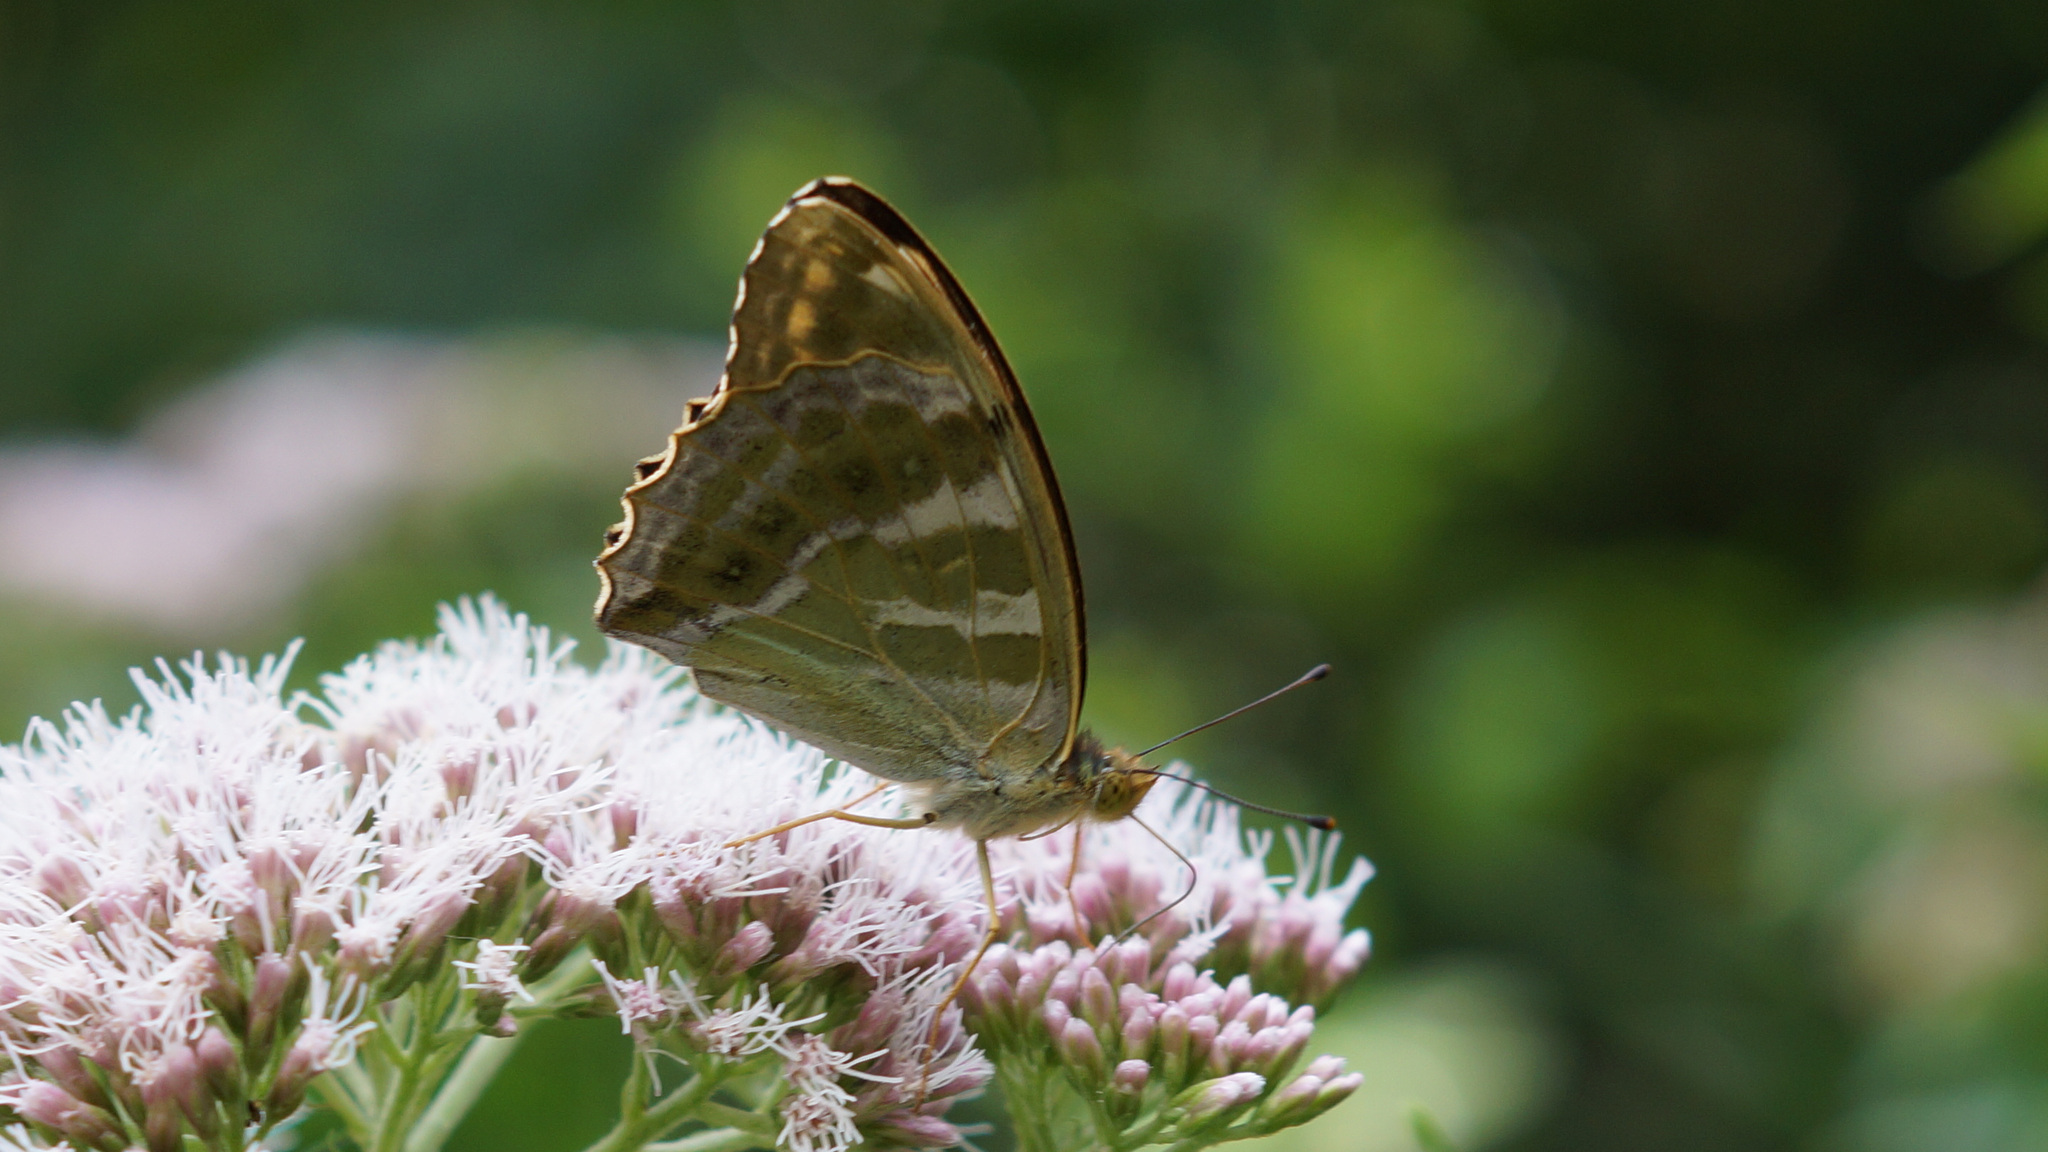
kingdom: Animalia
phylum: Arthropoda
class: Insecta
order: Lepidoptera
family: Nymphalidae
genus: Argynnis
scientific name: Argynnis paphia
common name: Silver-washed fritillary
